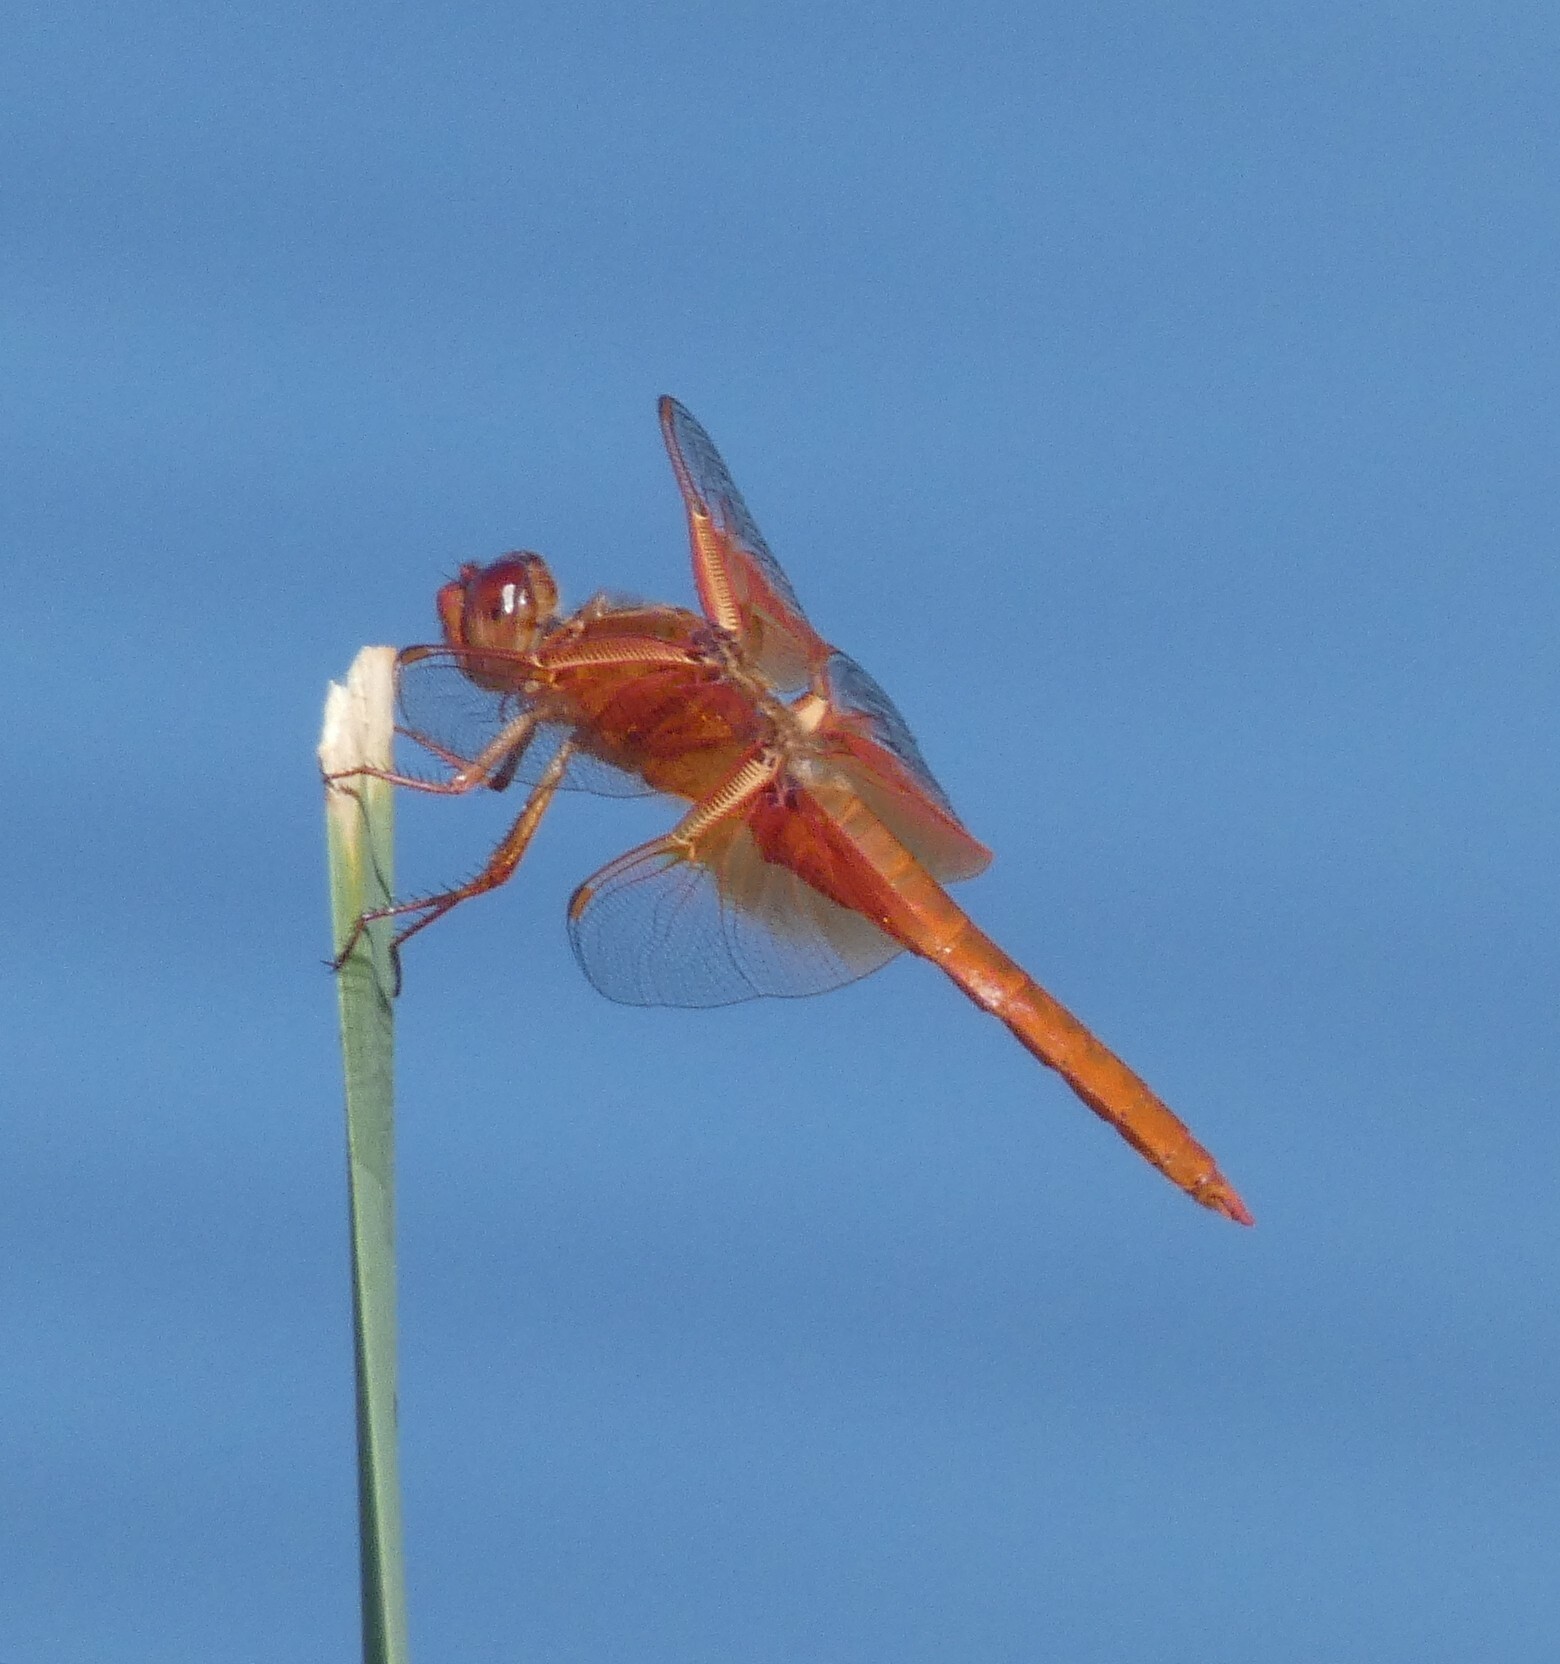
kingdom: Animalia
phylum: Arthropoda
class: Insecta
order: Odonata
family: Libellulidae
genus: Libellula
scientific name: Libellula saturata
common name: Flame skimmer
